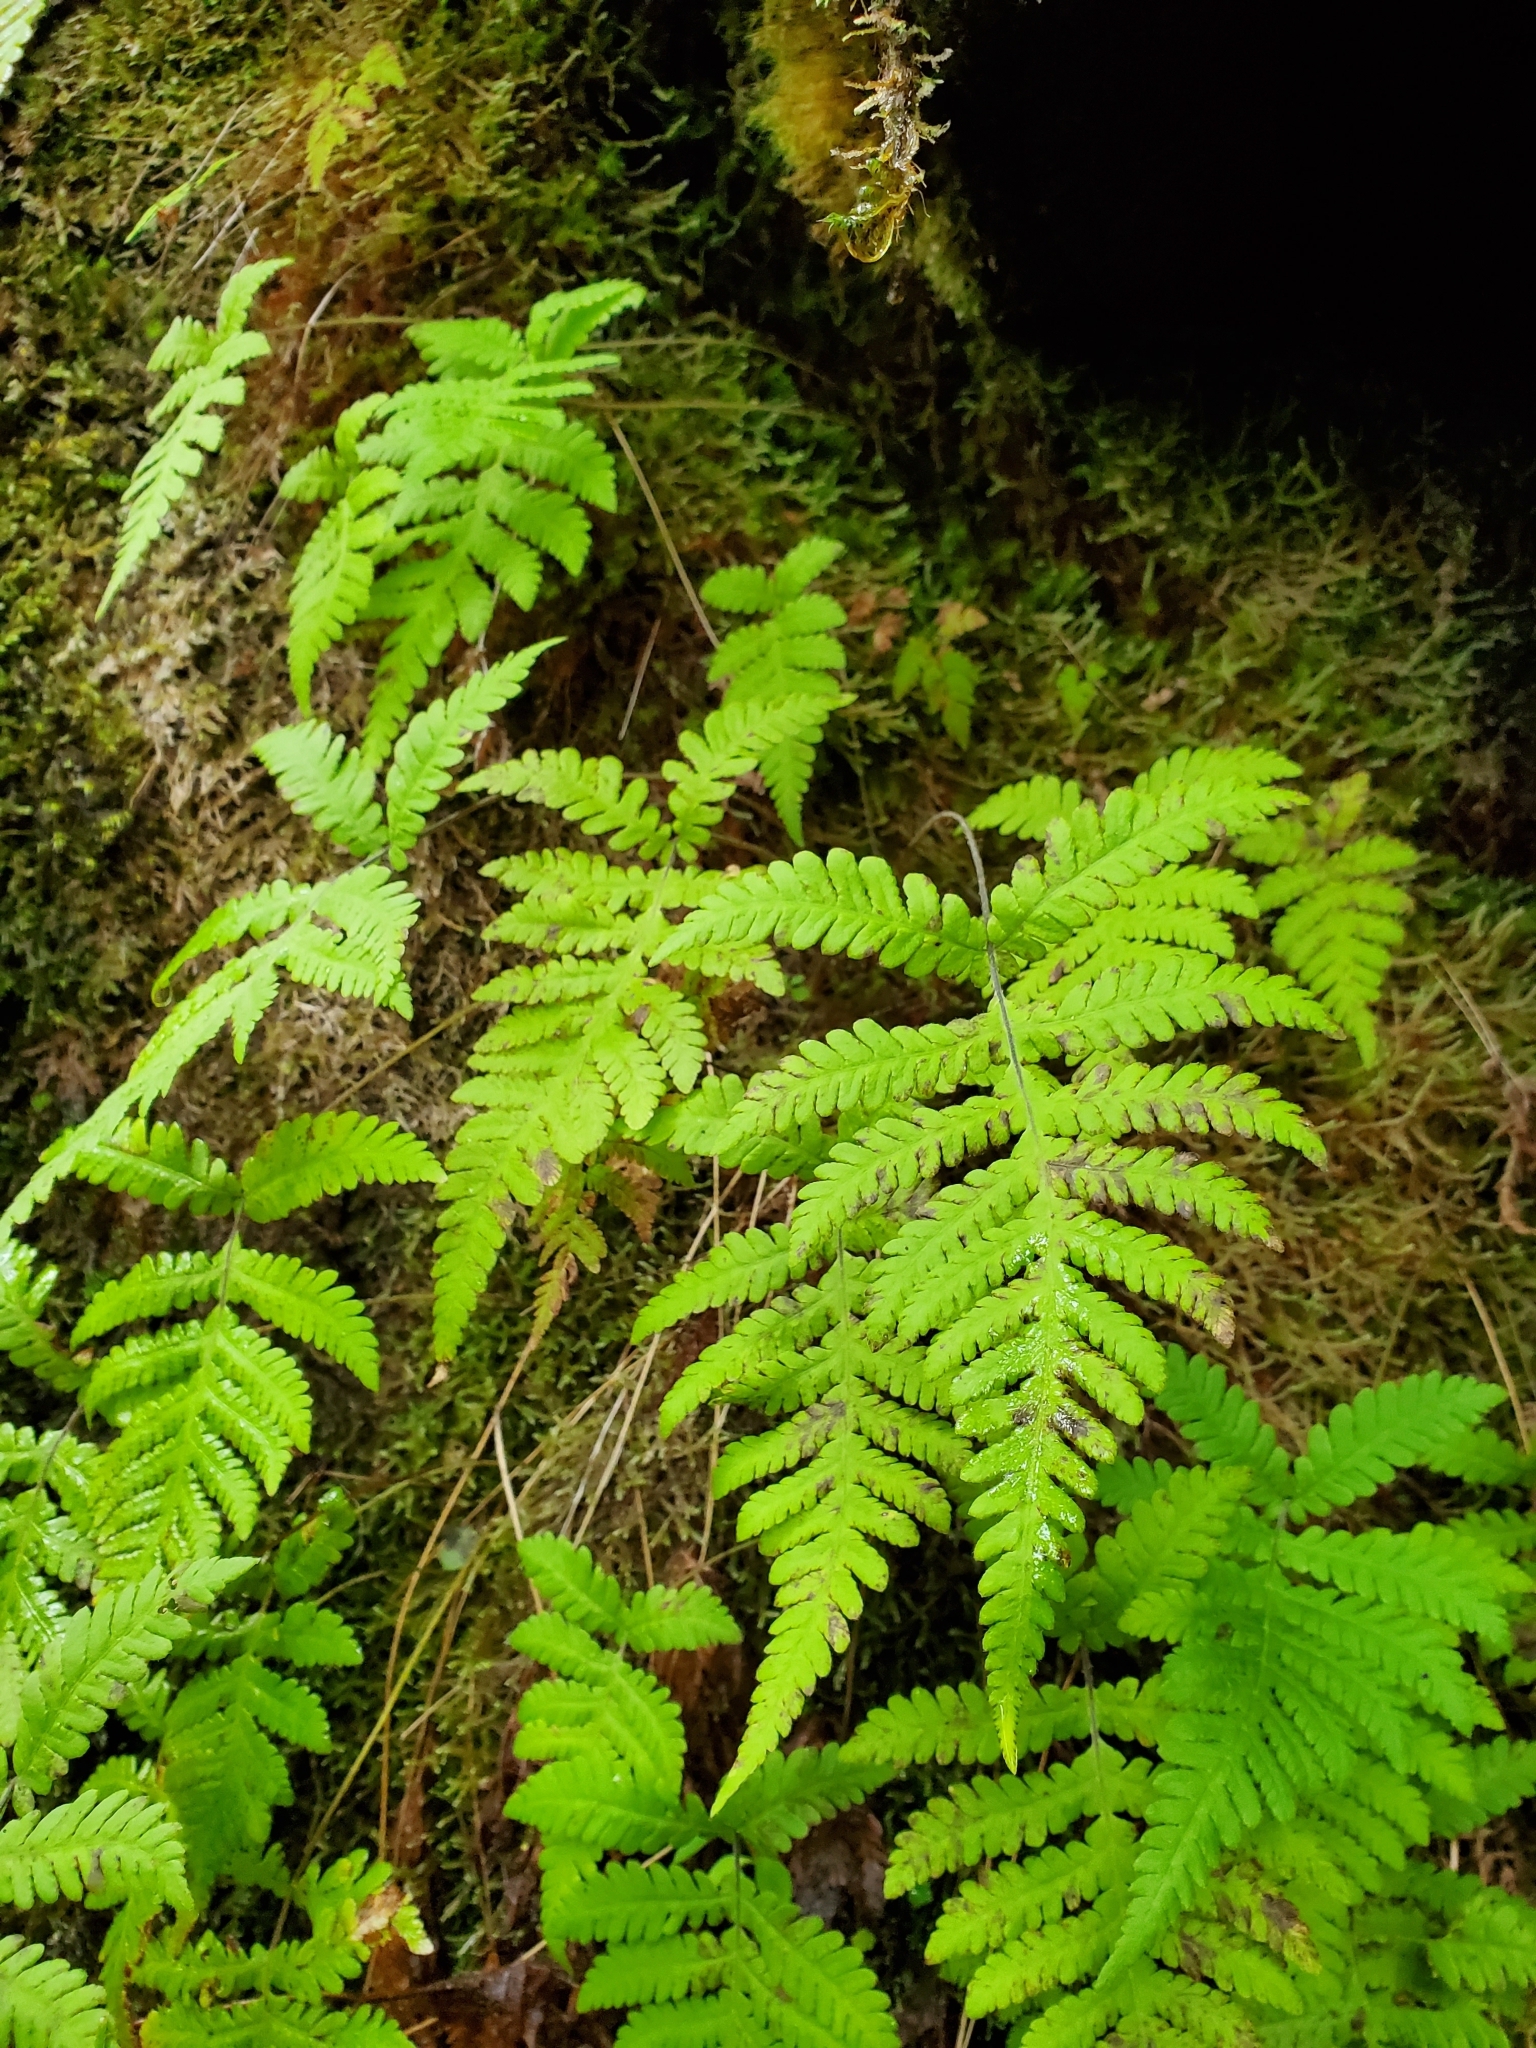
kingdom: Plantae
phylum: Tracheophyta
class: Polypodiopsida
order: Polypodiales
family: Thelypteridaceae
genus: Phegopteris
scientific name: Phegopteris connectilis
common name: Beech fern
